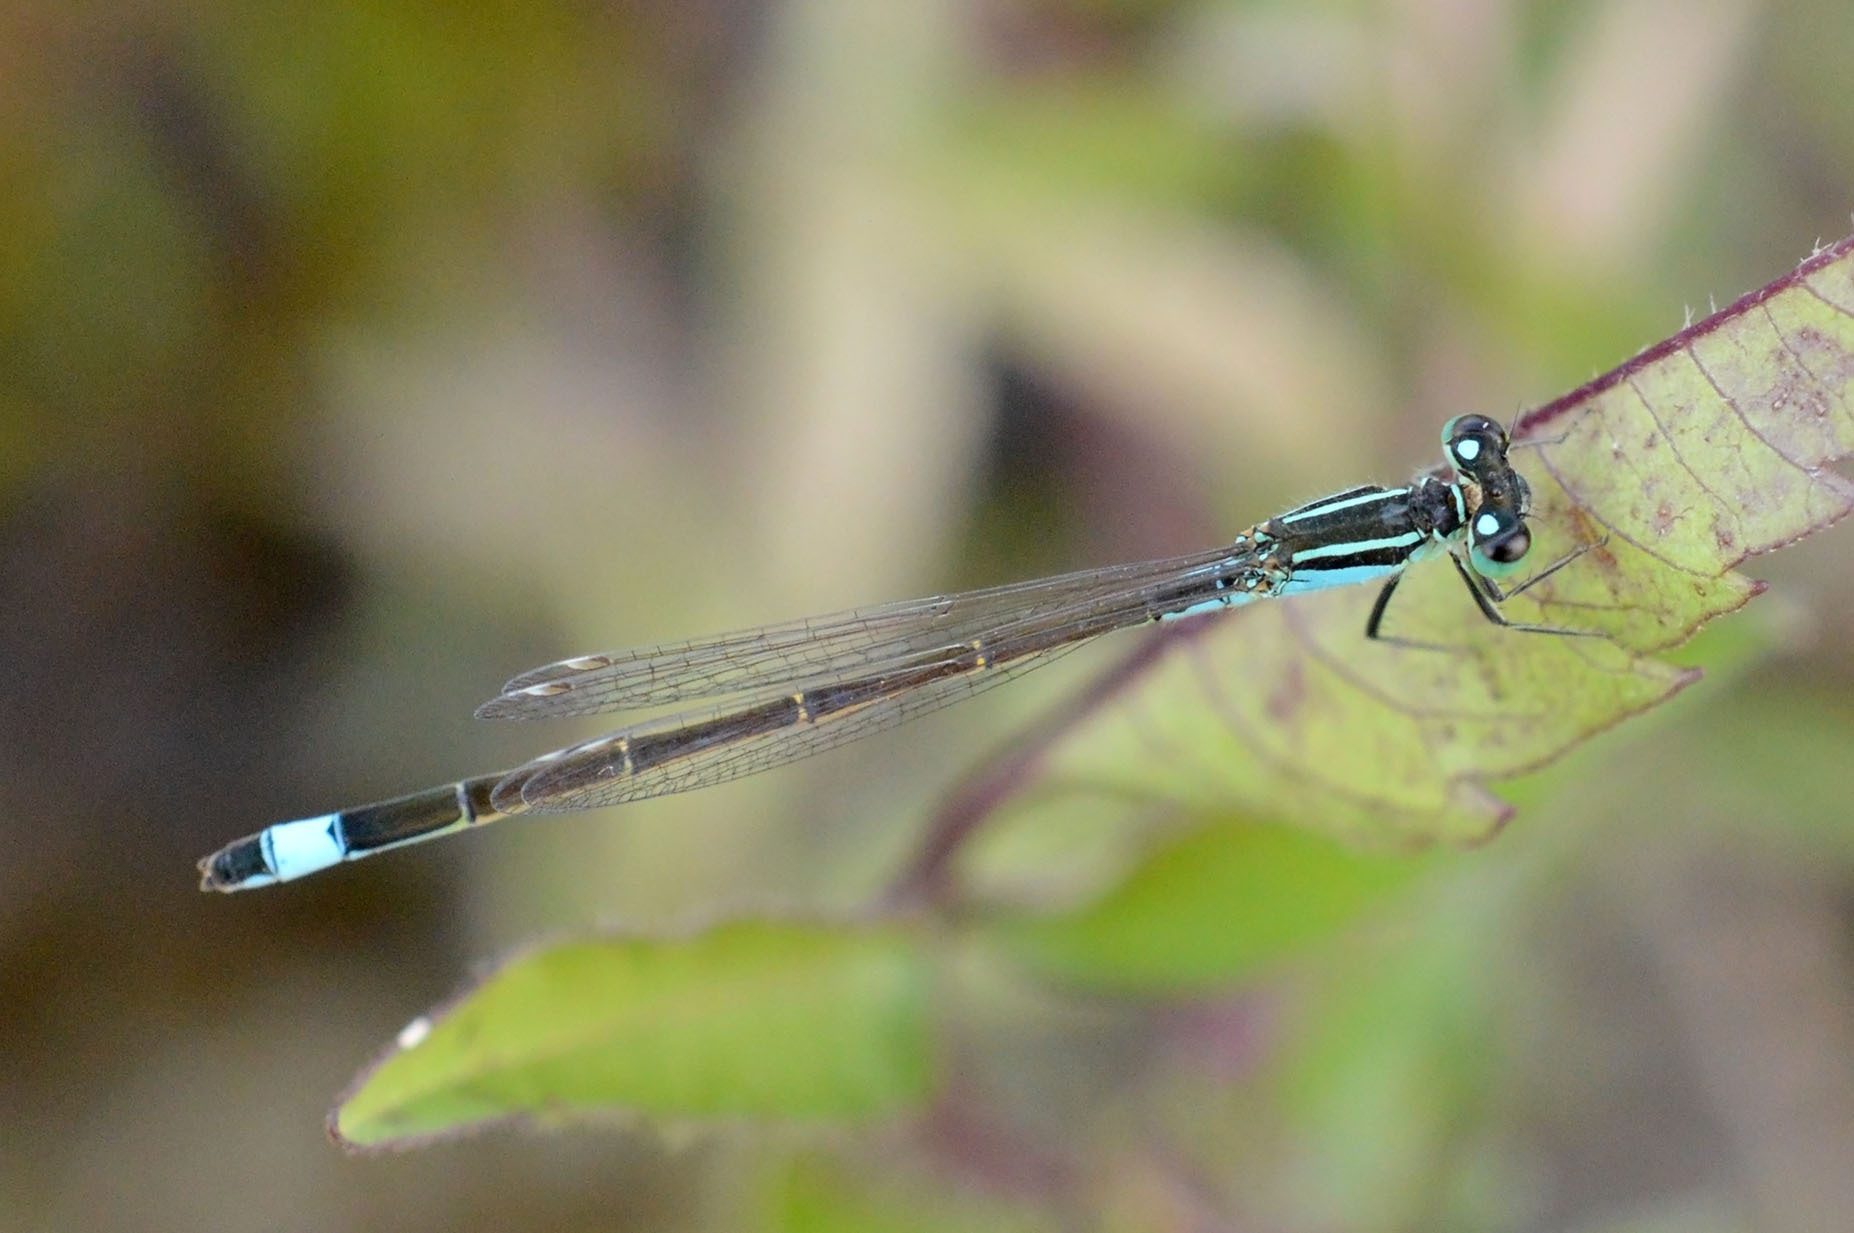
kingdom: Animalia
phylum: Arthropoda
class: Insecta
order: Odonata
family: Coenagrionidae
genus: Ischnura
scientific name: Ischnura elegans
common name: Blue-tailed damselfly
